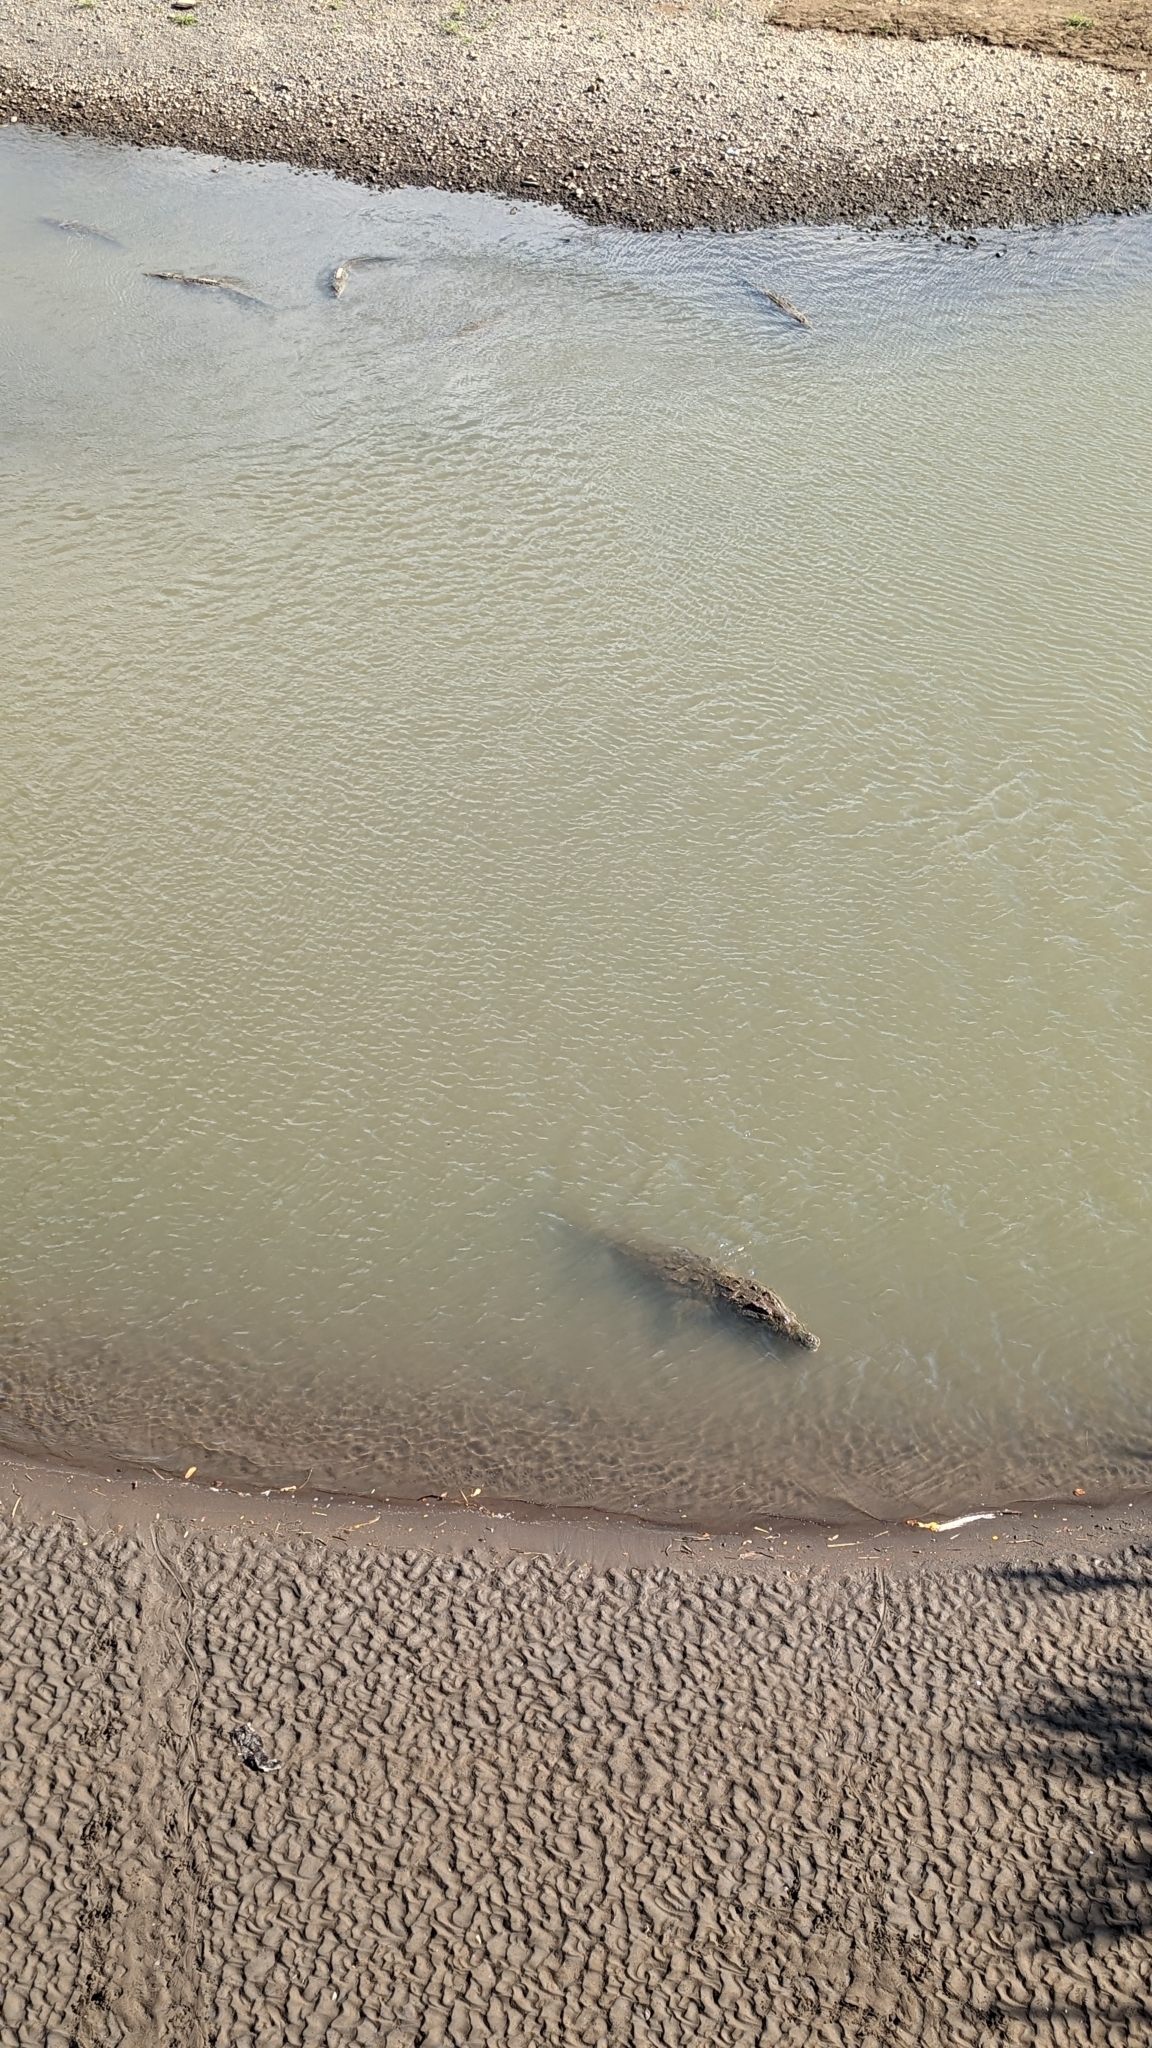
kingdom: Animalia
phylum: Chordata
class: Crocodylia
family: Crocodylidae
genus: Crocodylus
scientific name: Crocodylus acutus
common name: American crocodile
